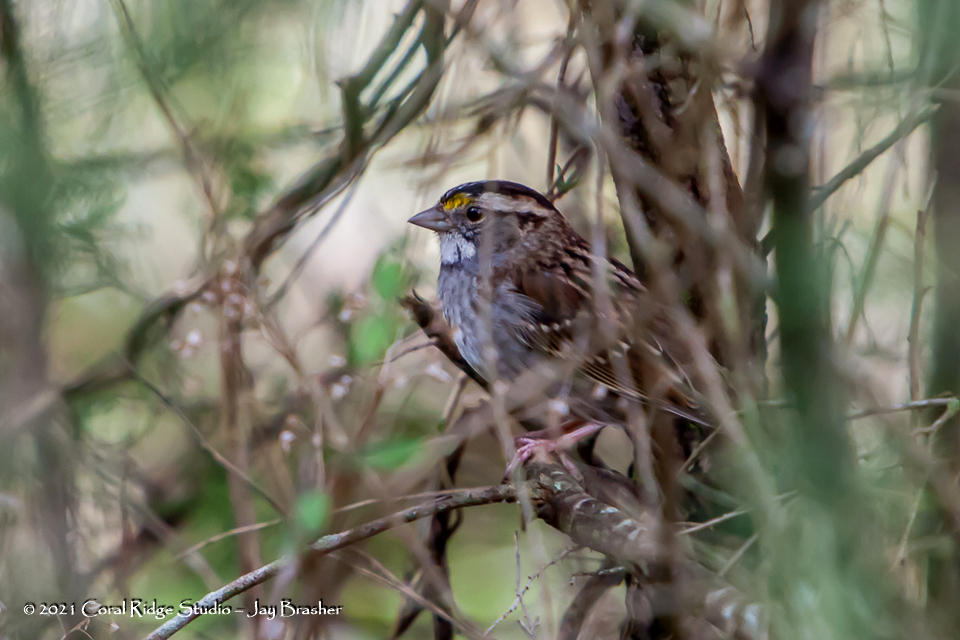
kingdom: Animalia
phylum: Chordata
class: Aves
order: Passeriformes
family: Passerellidae
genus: Zonotrichia
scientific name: Zonotrichia albicollis
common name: White-throated sparrow
